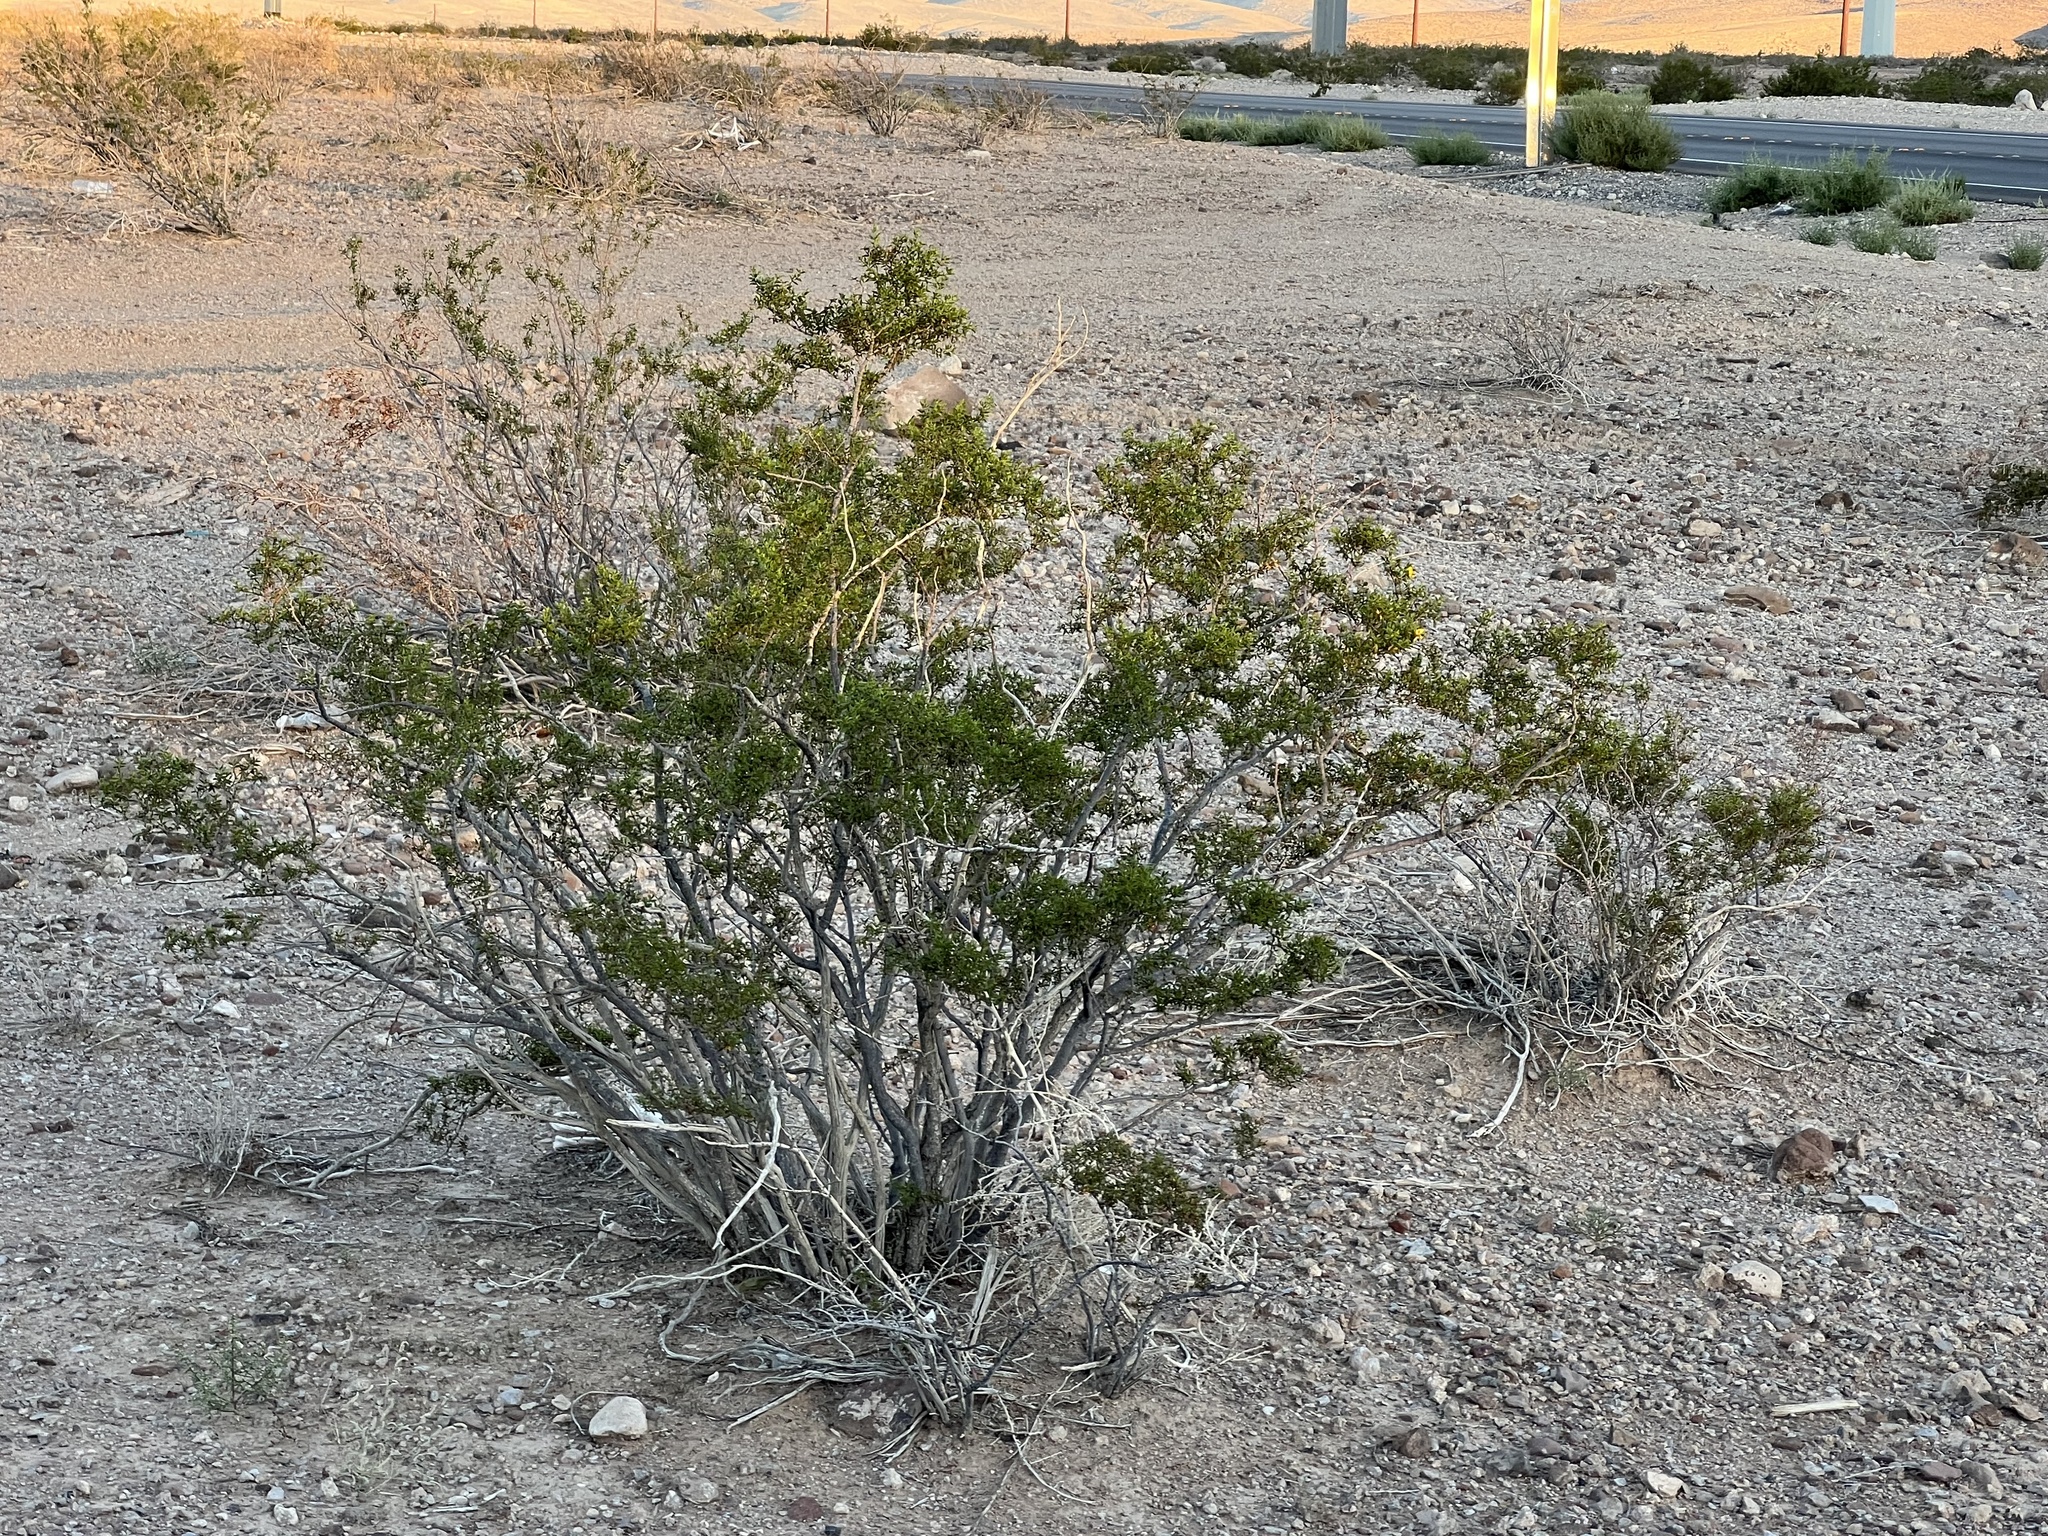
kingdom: Plantae
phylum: Tracheophyta
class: Magnoliopsida
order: Zygophyllales
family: Zygophyllaceae
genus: Larrea
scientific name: Larrea tridentata
